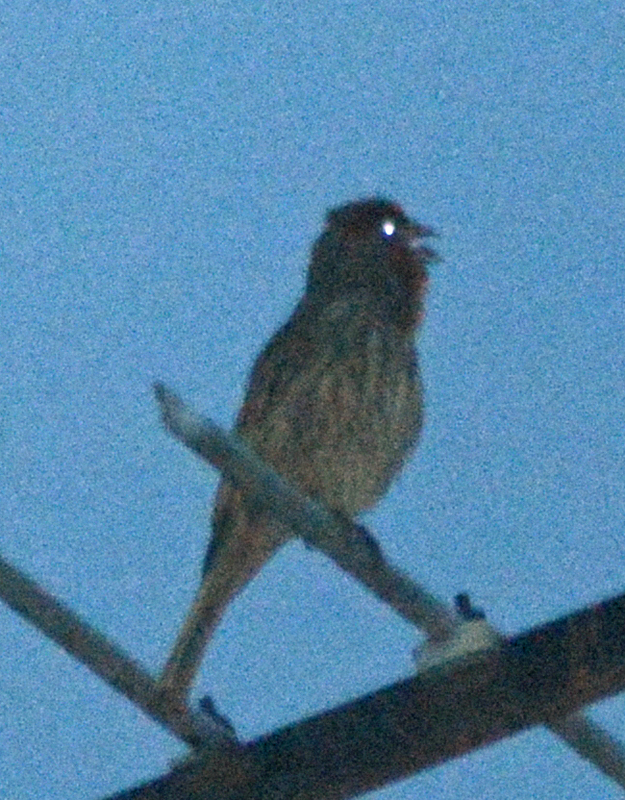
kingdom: Animalia
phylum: Chordata
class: Aves
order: Passeriformes
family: Fringillidae
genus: Haemorhous
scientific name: Haemorhous mexicanus
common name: House finch
